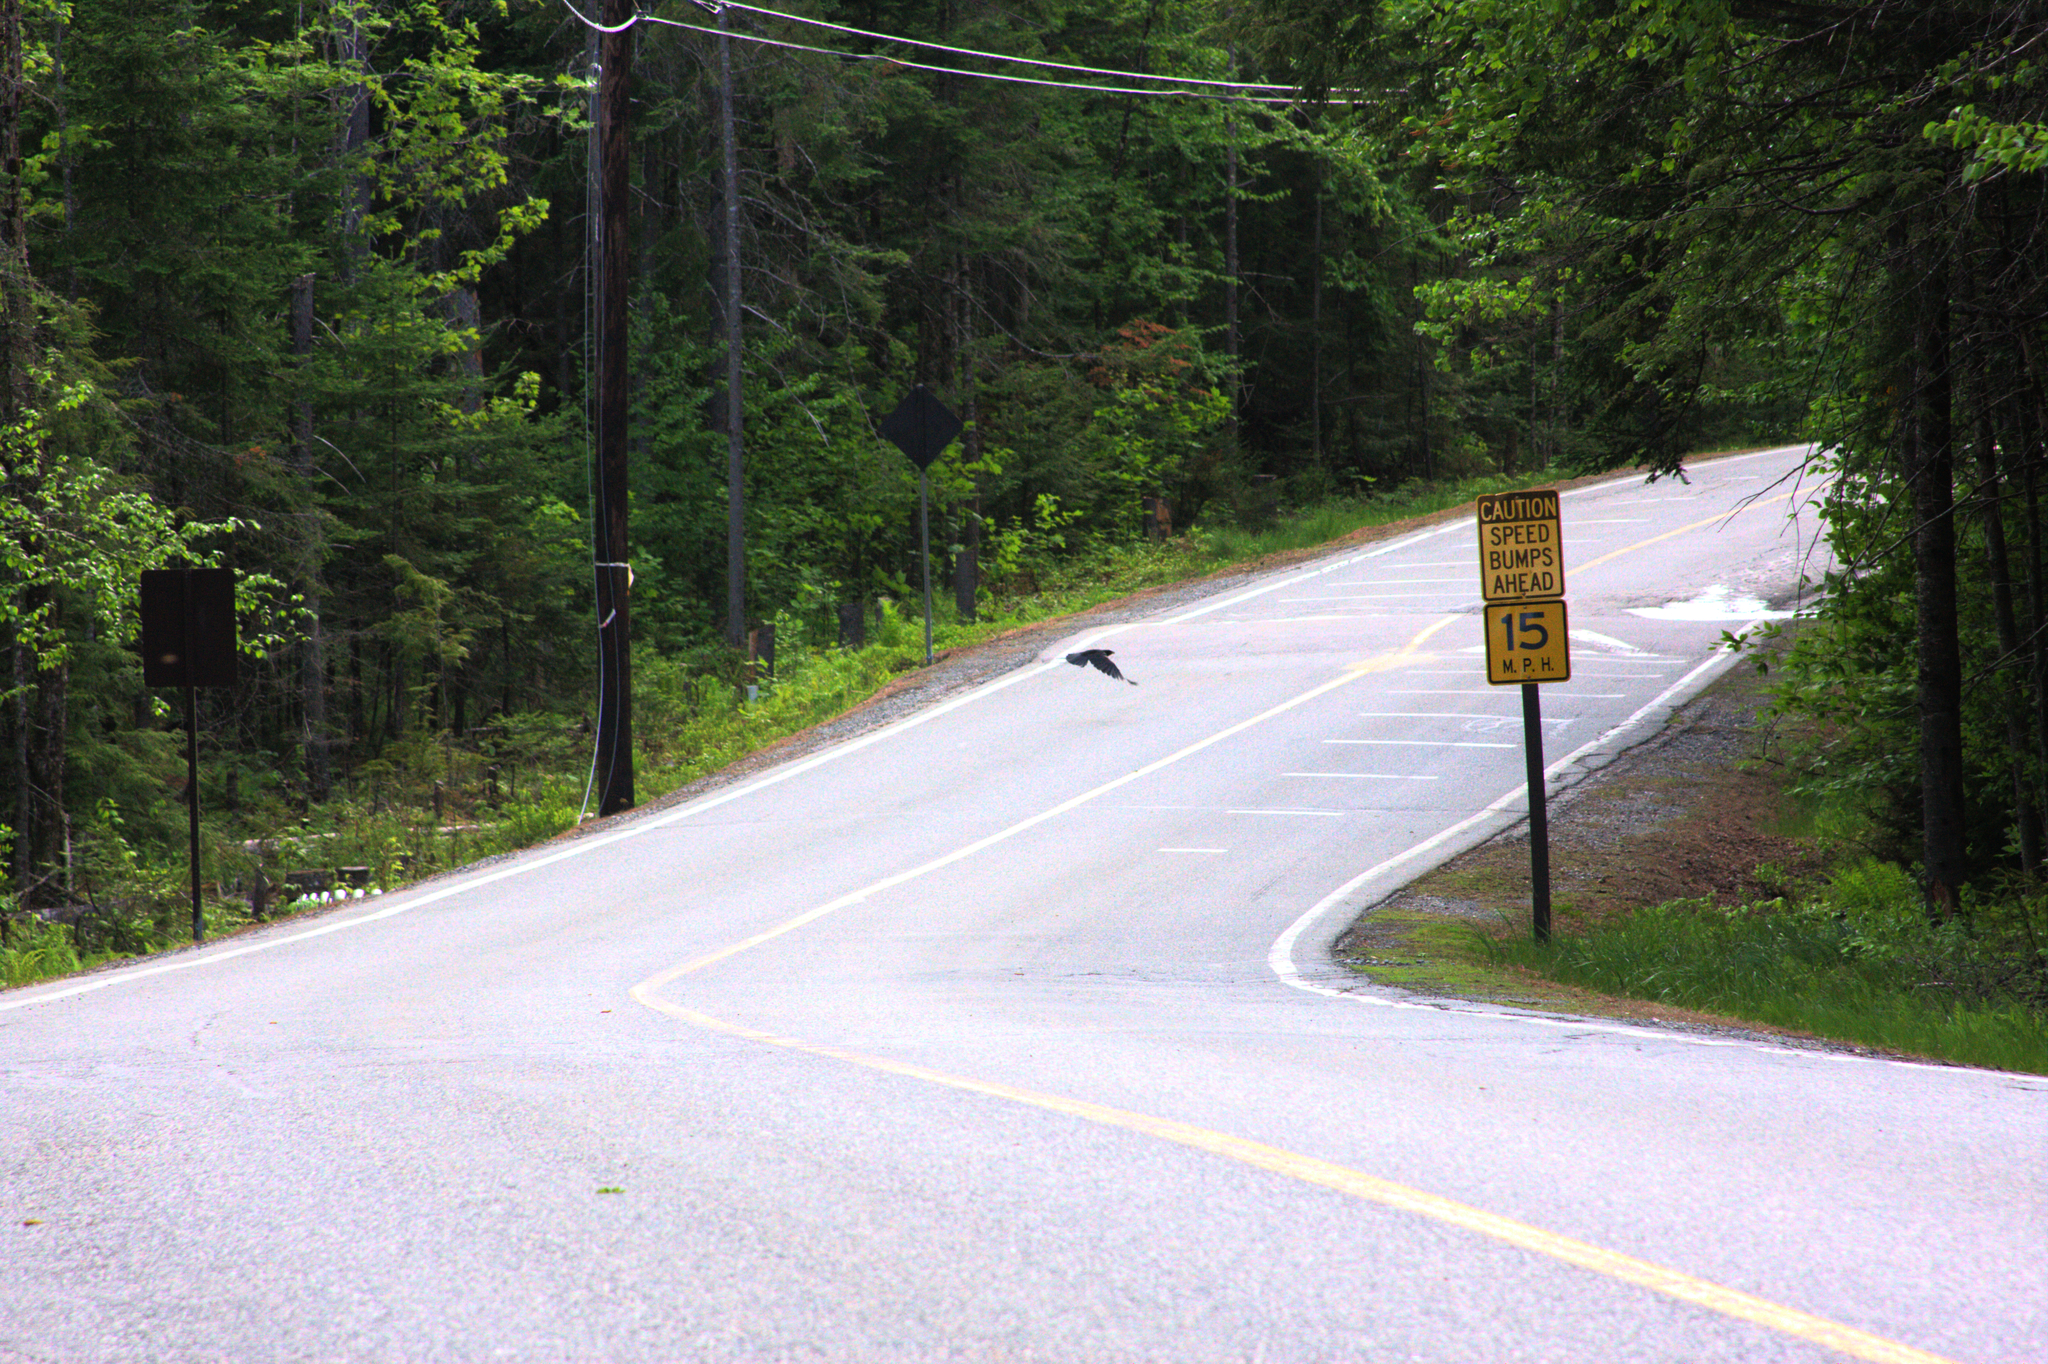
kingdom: Animalia
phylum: Chordata
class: Aves
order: Passeriformes
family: Corvidae
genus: Corvus
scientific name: Corvus brachyrhynchos
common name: American crow
